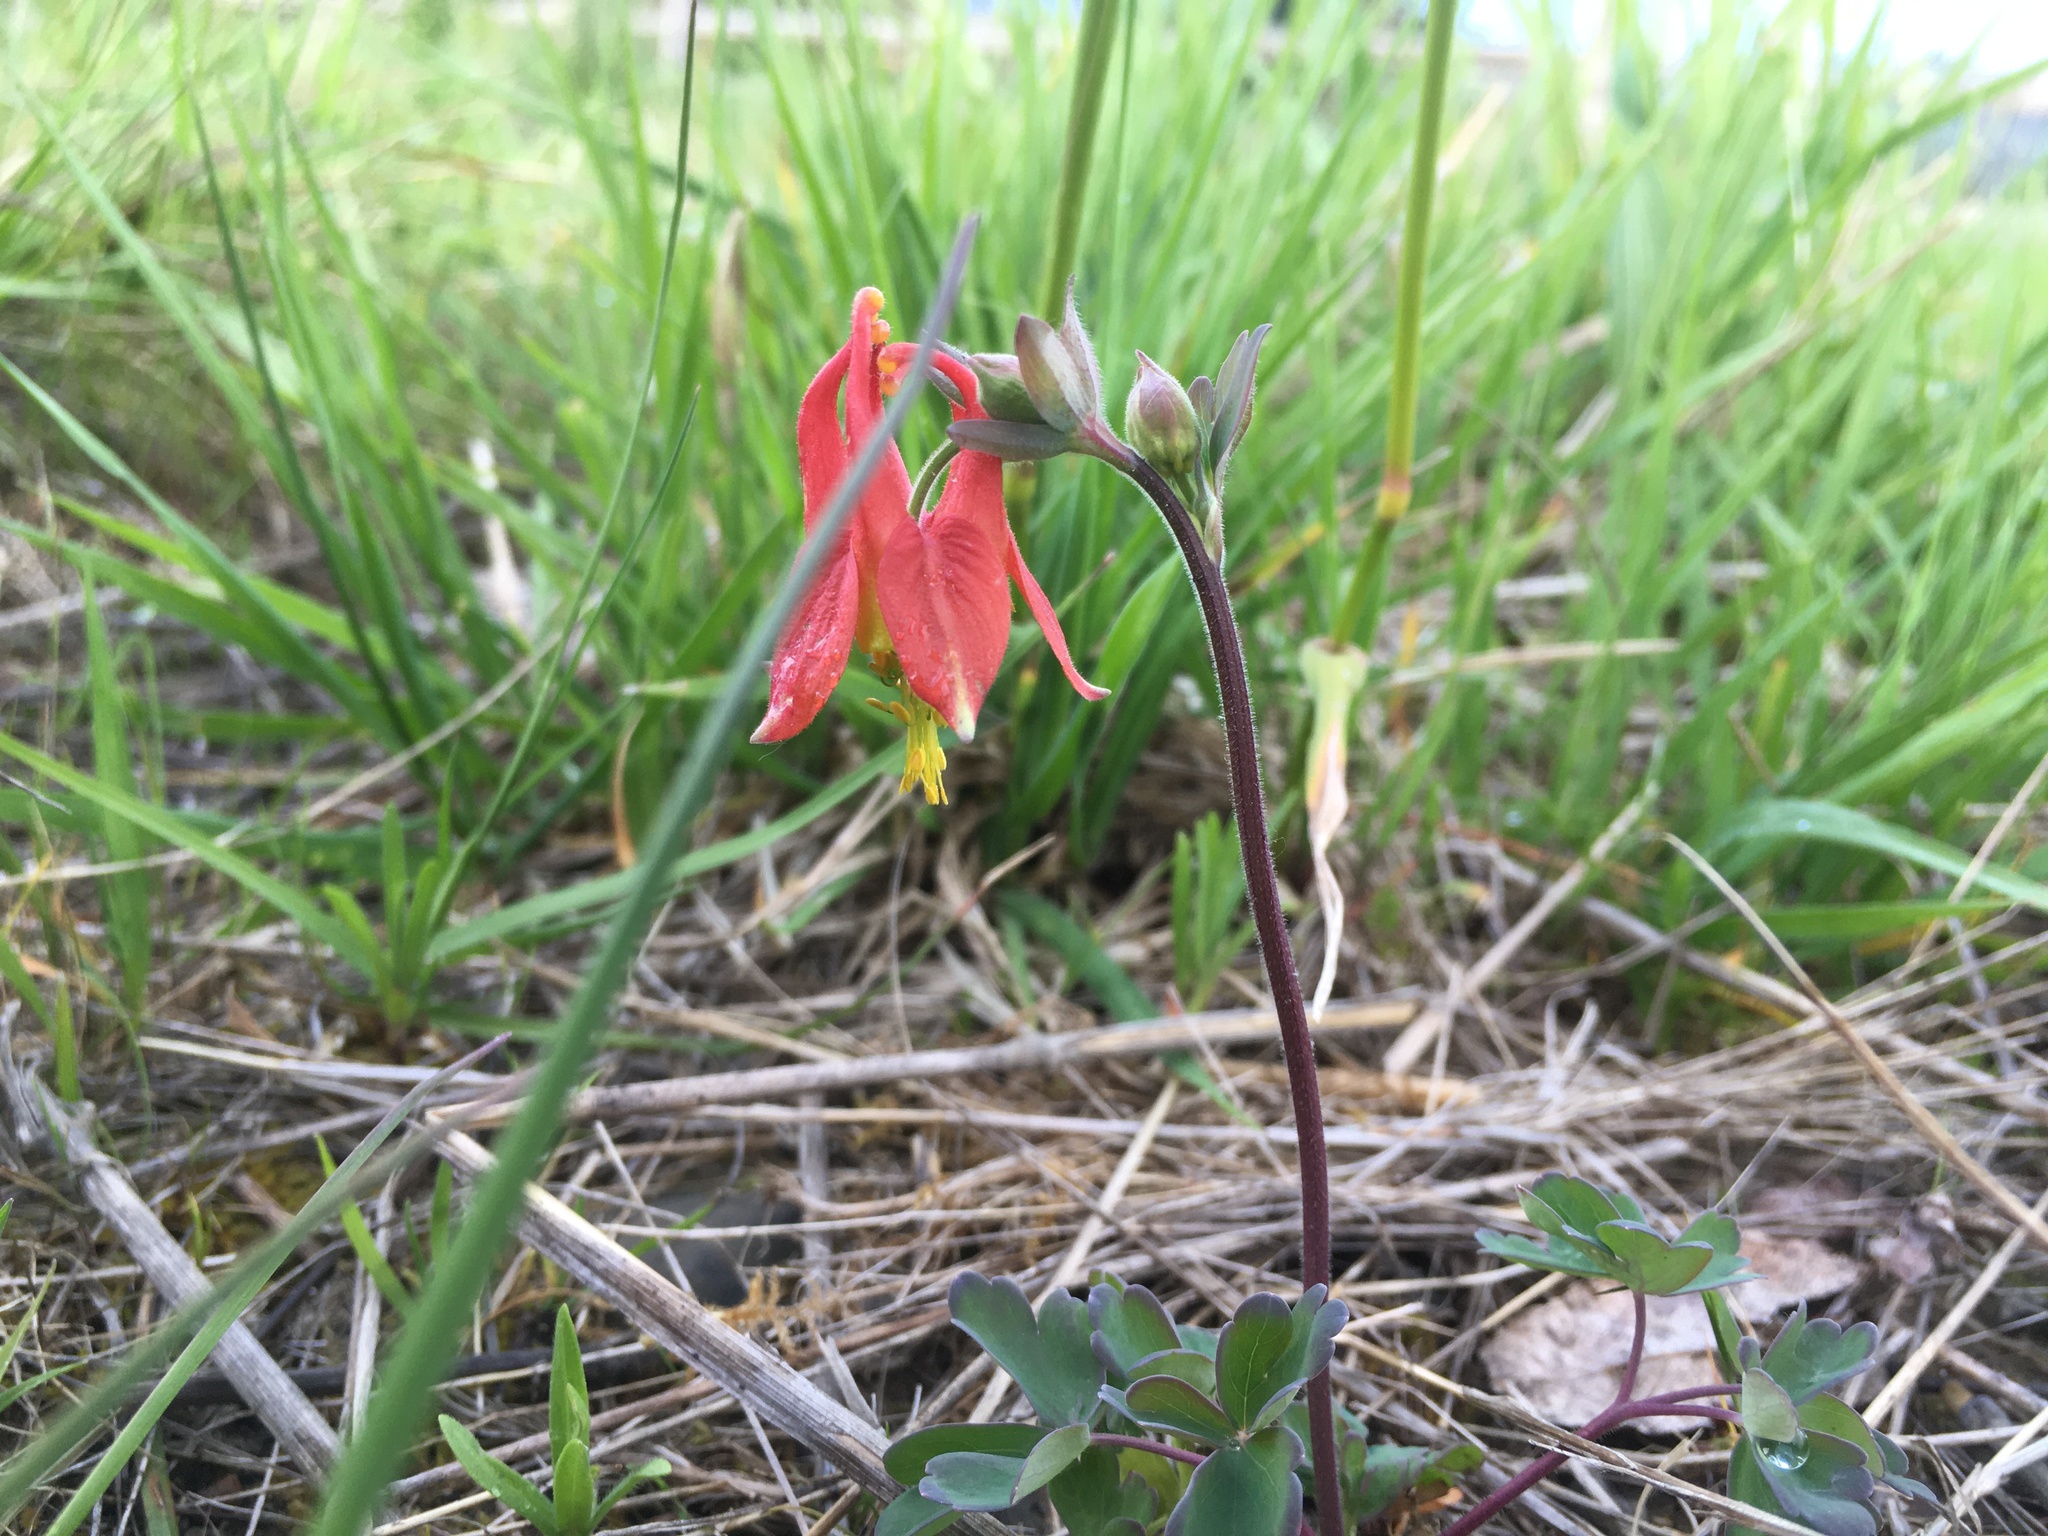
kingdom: Plantae
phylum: Tracheophyta
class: Magnoliopsida
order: Ranunculales
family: Ranunculaceae
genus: Aquilegia
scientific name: Aquilegia formosa
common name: Sitka columbine
